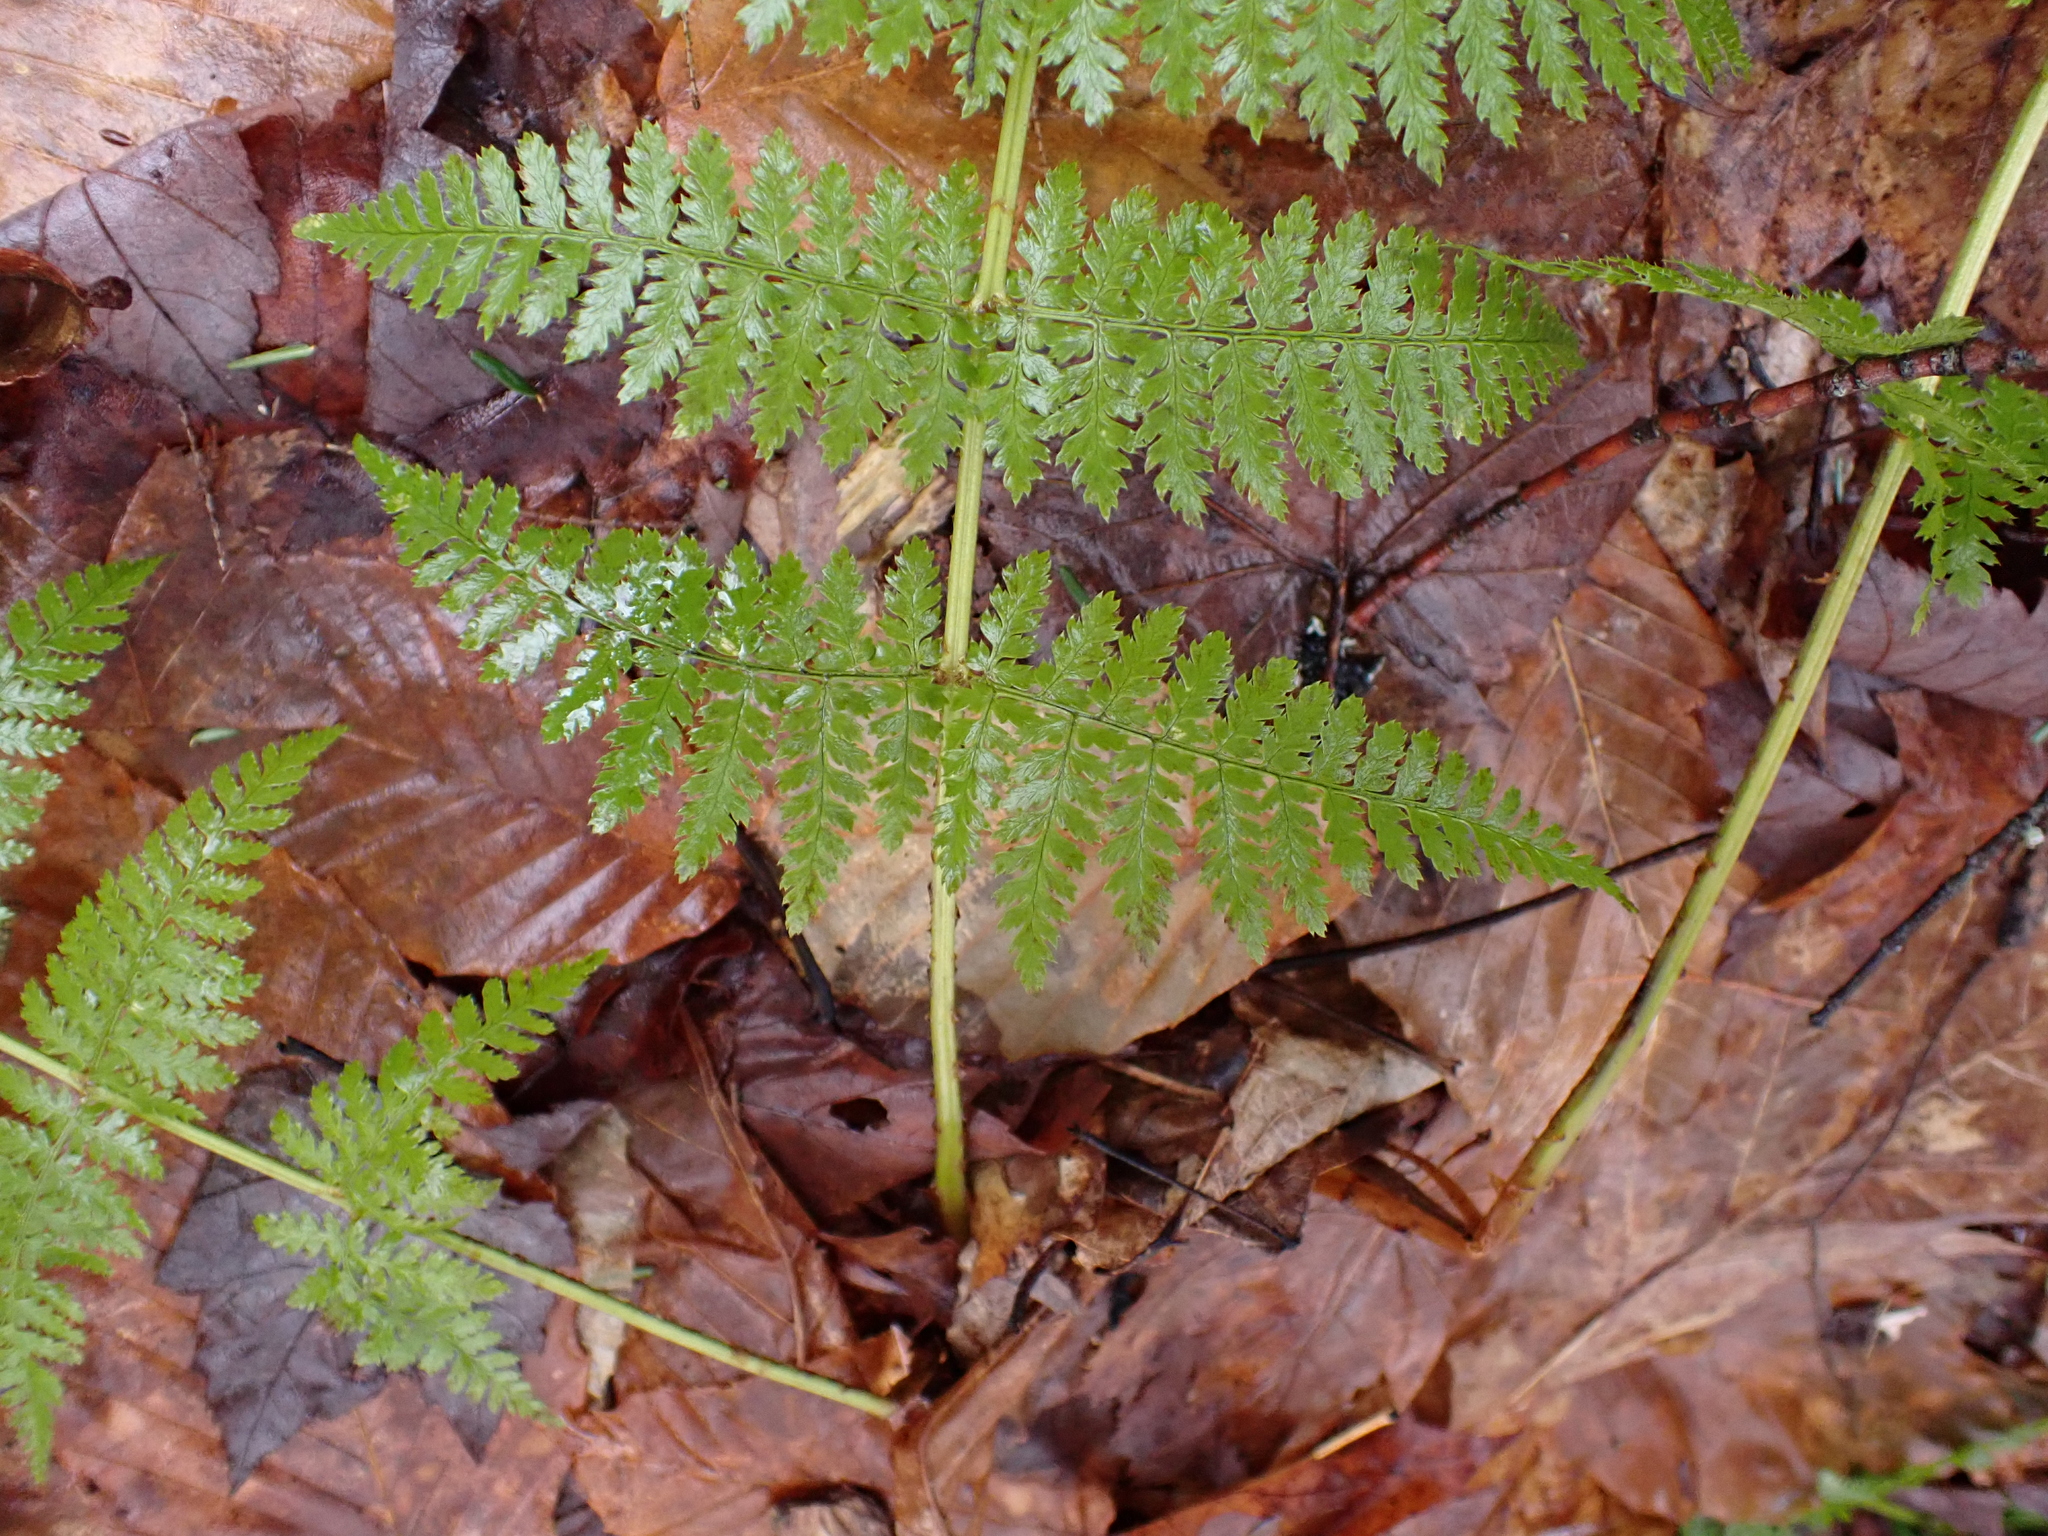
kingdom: Plantae
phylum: Tracheophyta
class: Polypodiopsida
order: Polypodiales
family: Dryopteridaceae
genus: Dryopteris
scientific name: Dryopteris intermedia
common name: Evergreen wood fern
